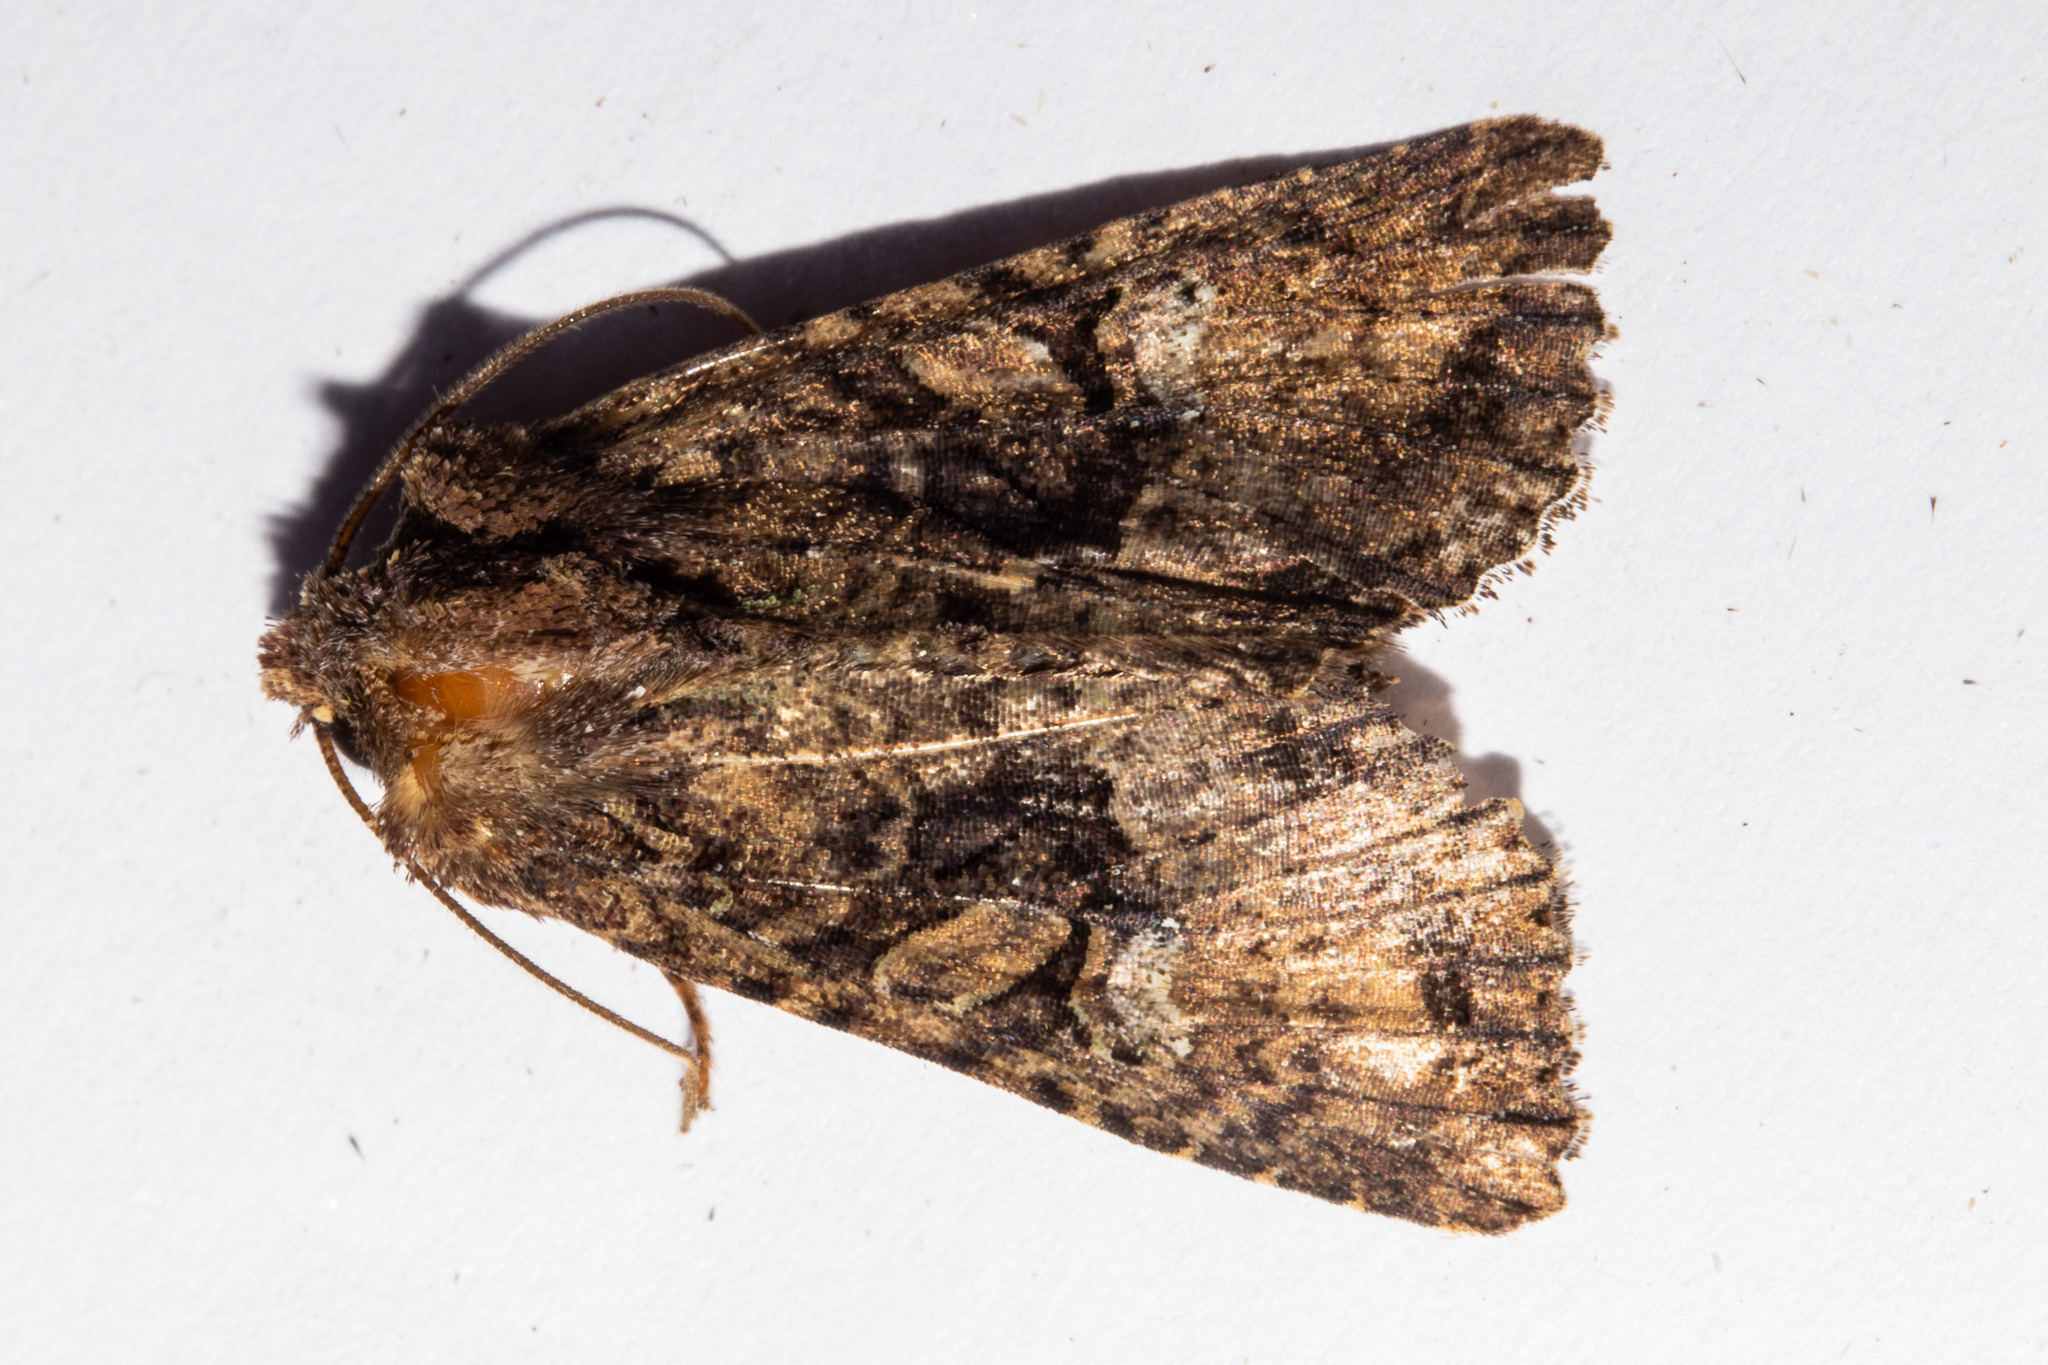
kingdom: Animalia
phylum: Arthropoda
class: Insecta
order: Lepidoptera
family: Noctuidae
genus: Meterana
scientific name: Meterana ochthistis
